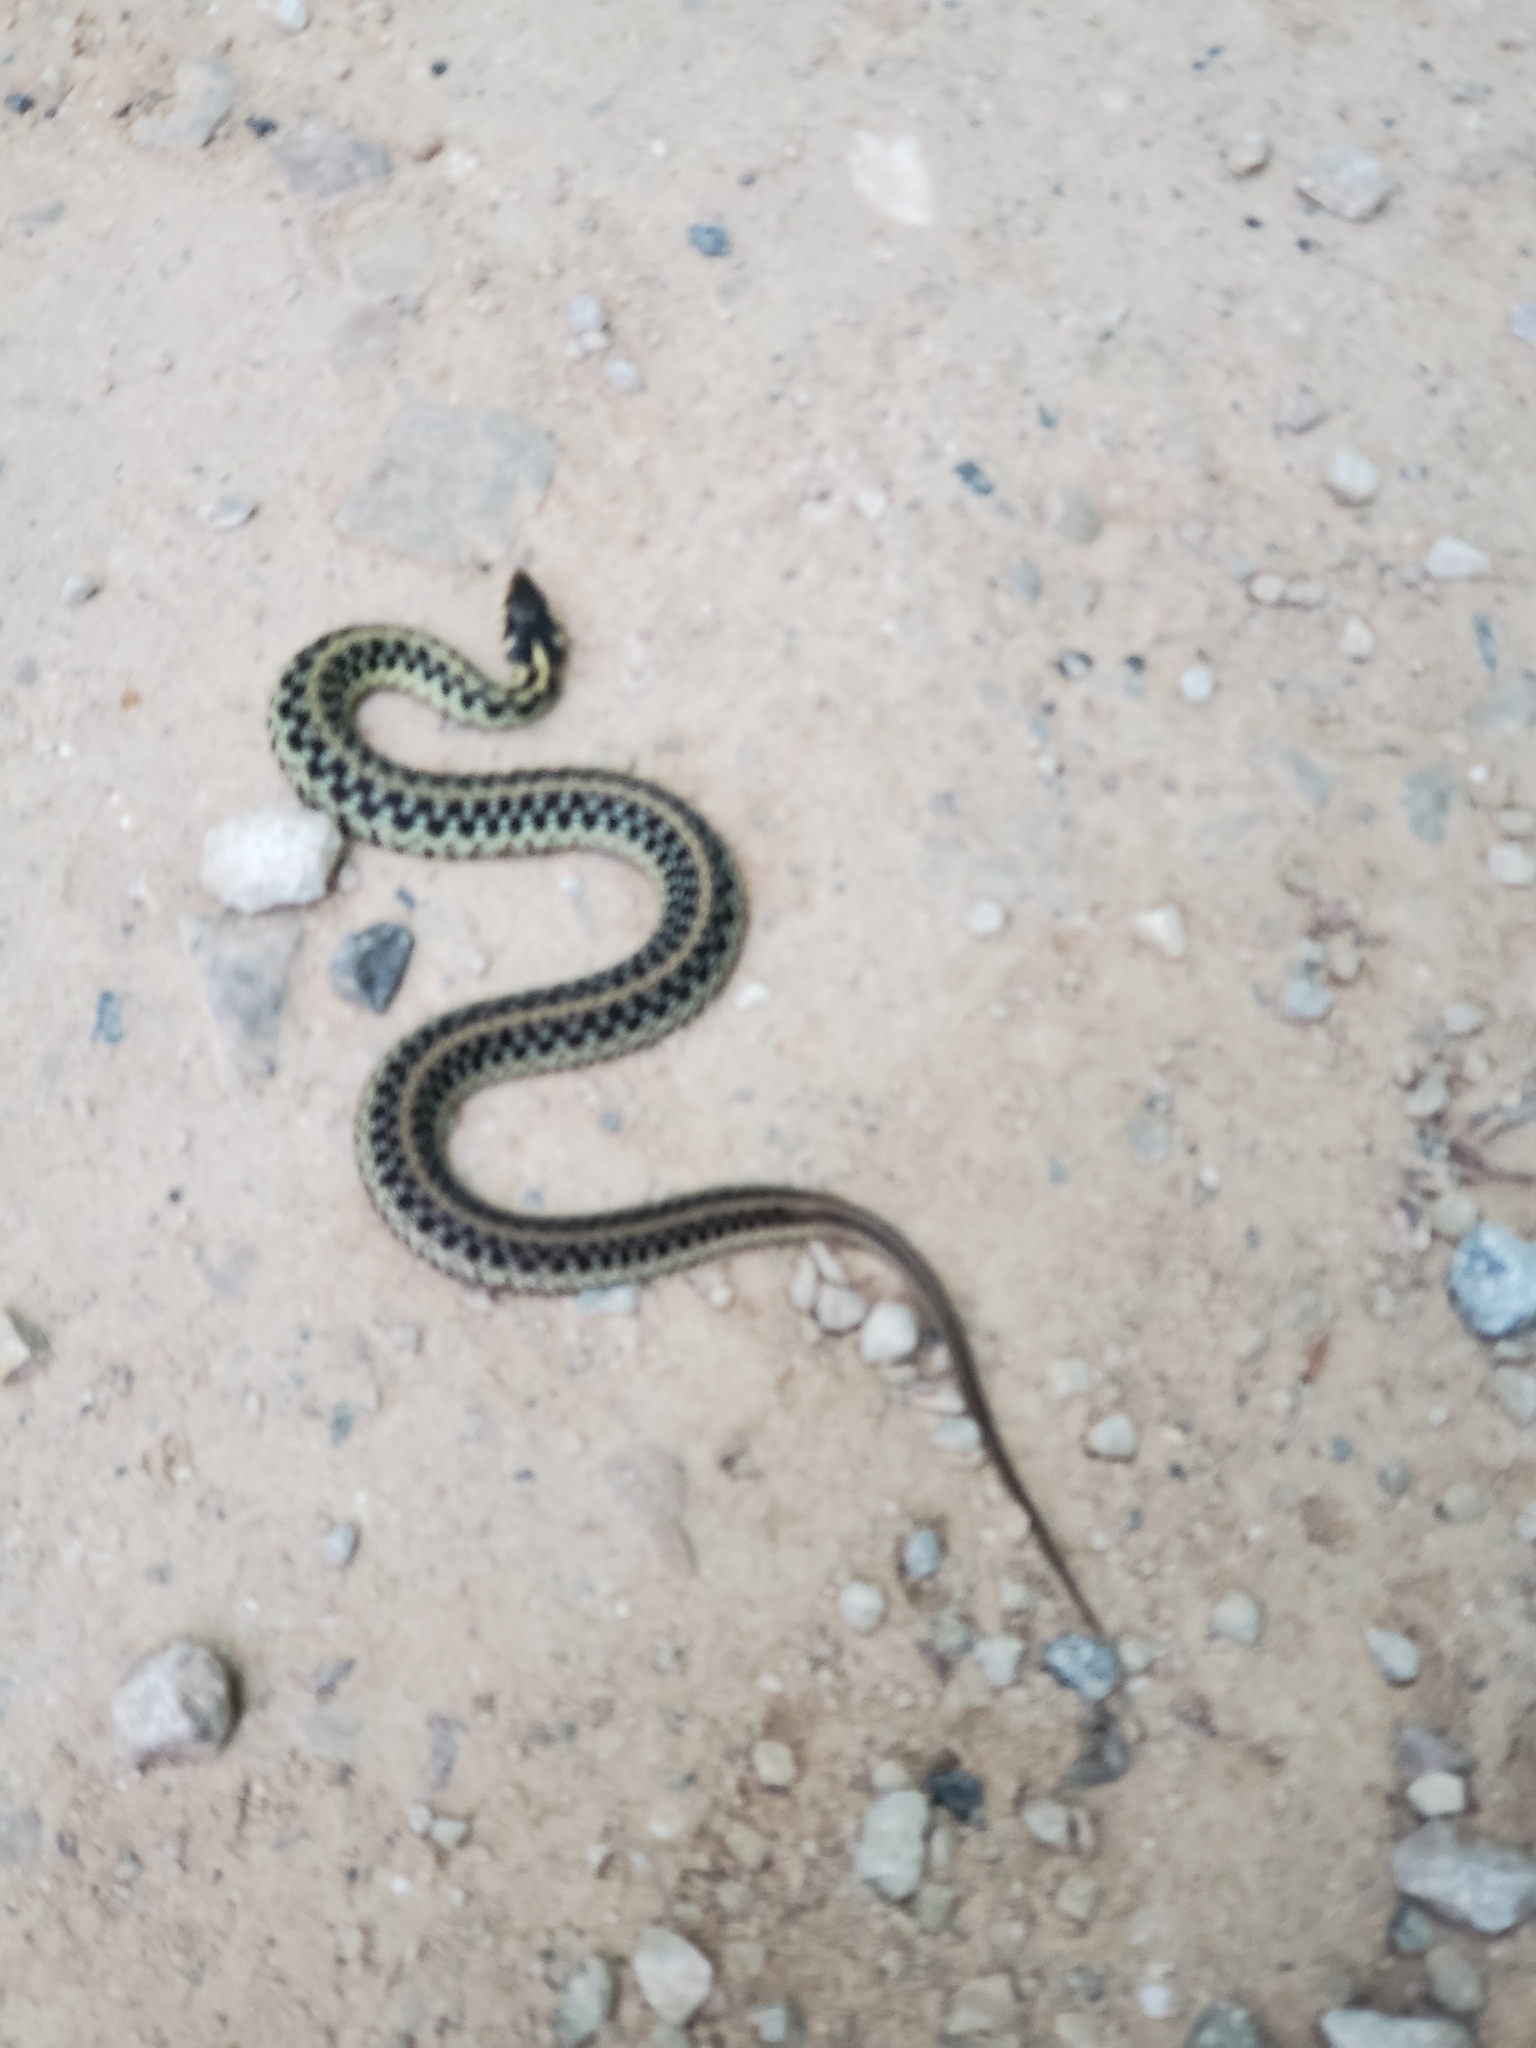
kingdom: Animalia
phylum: Chordata
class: Squamata
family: Colubridae
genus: Thamnophis
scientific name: Thamnophis sirtalis
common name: Common garter snake
